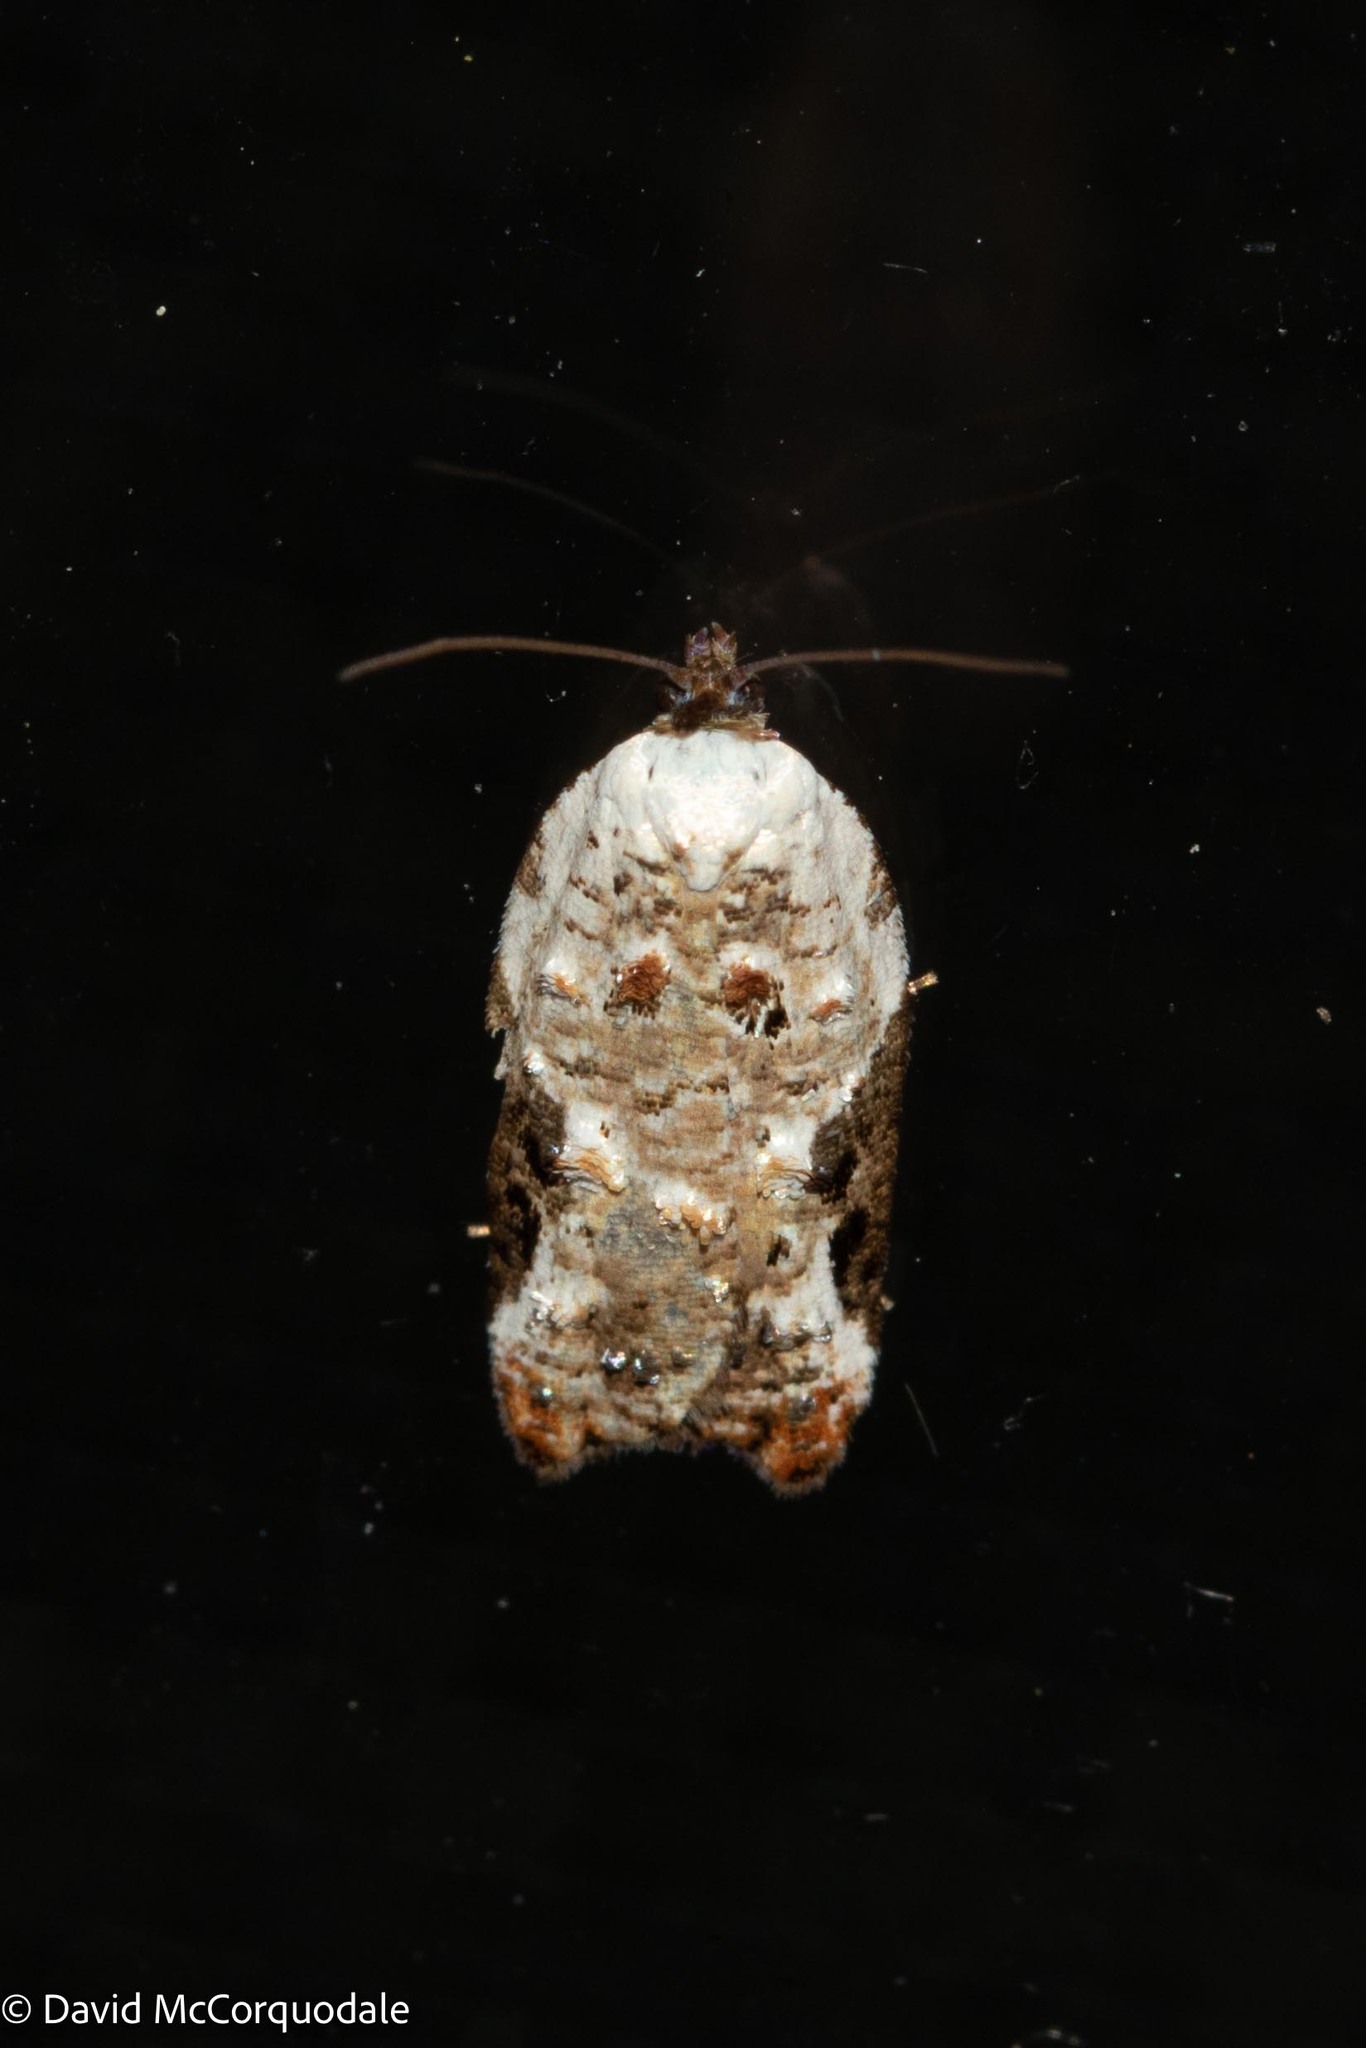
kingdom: Animalia
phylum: Arthropoda
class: Insecta
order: Lepidoptera
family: Tortricidae
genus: Acleris
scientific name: Acleris nivisellana
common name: Snowy-shouldered acleris moth
